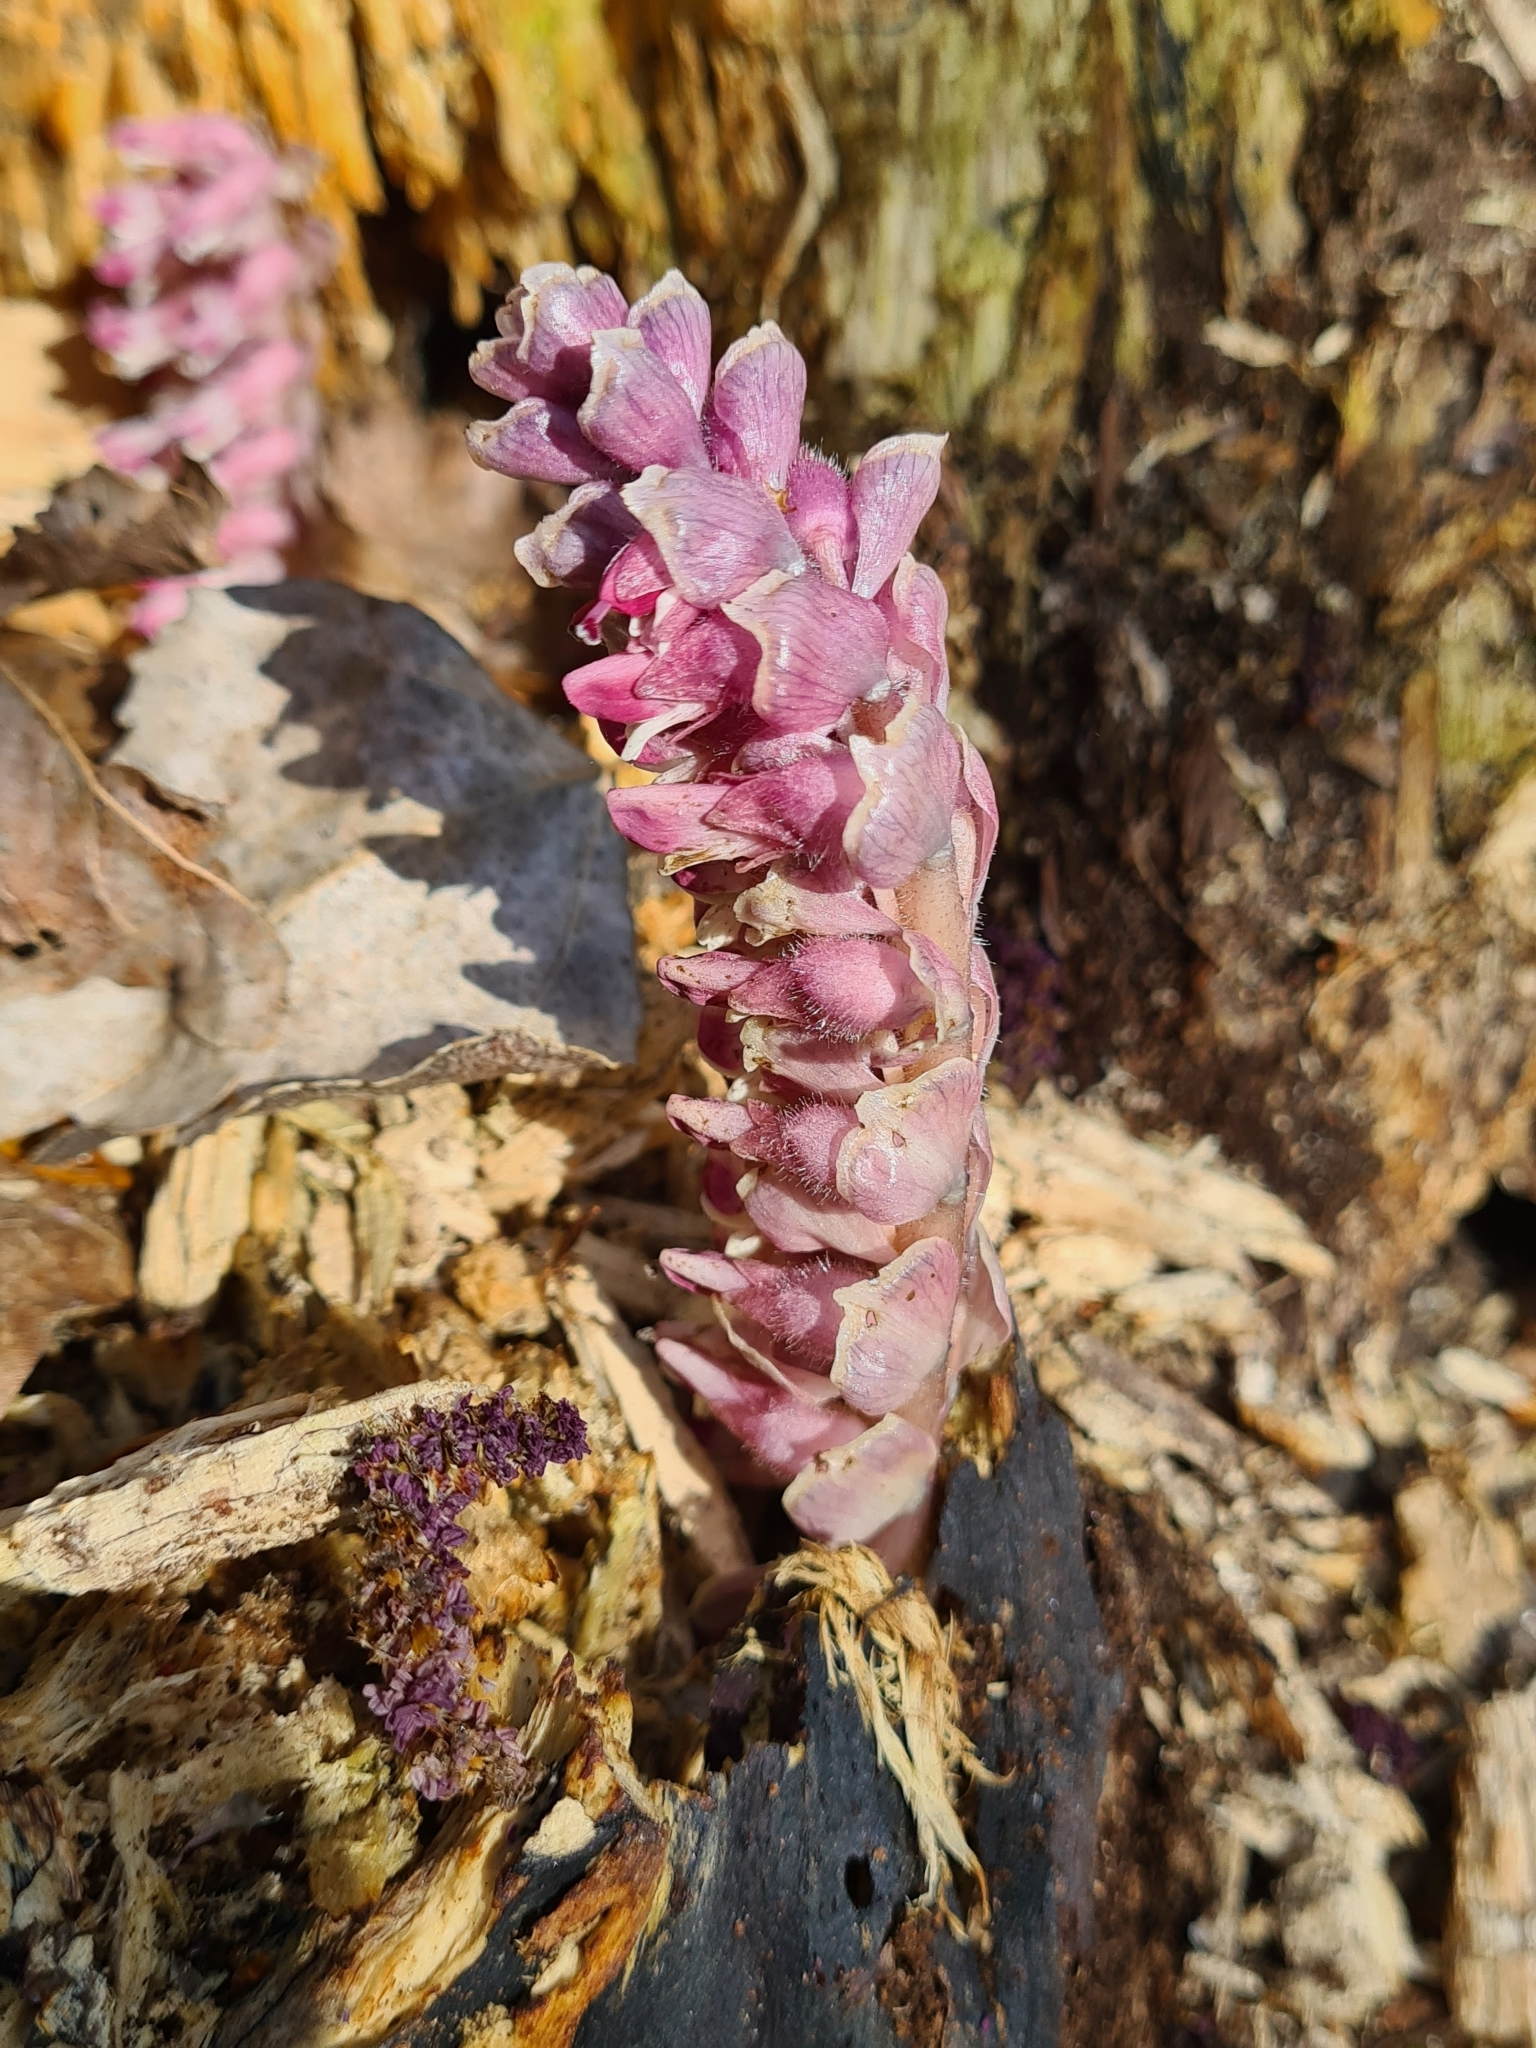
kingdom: Plantae
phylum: Tracheophyta
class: Magnoliopsida
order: Lamiales
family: Orobanchaceae
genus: Lathraea
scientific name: Lathraea squamaria
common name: Toothwort
